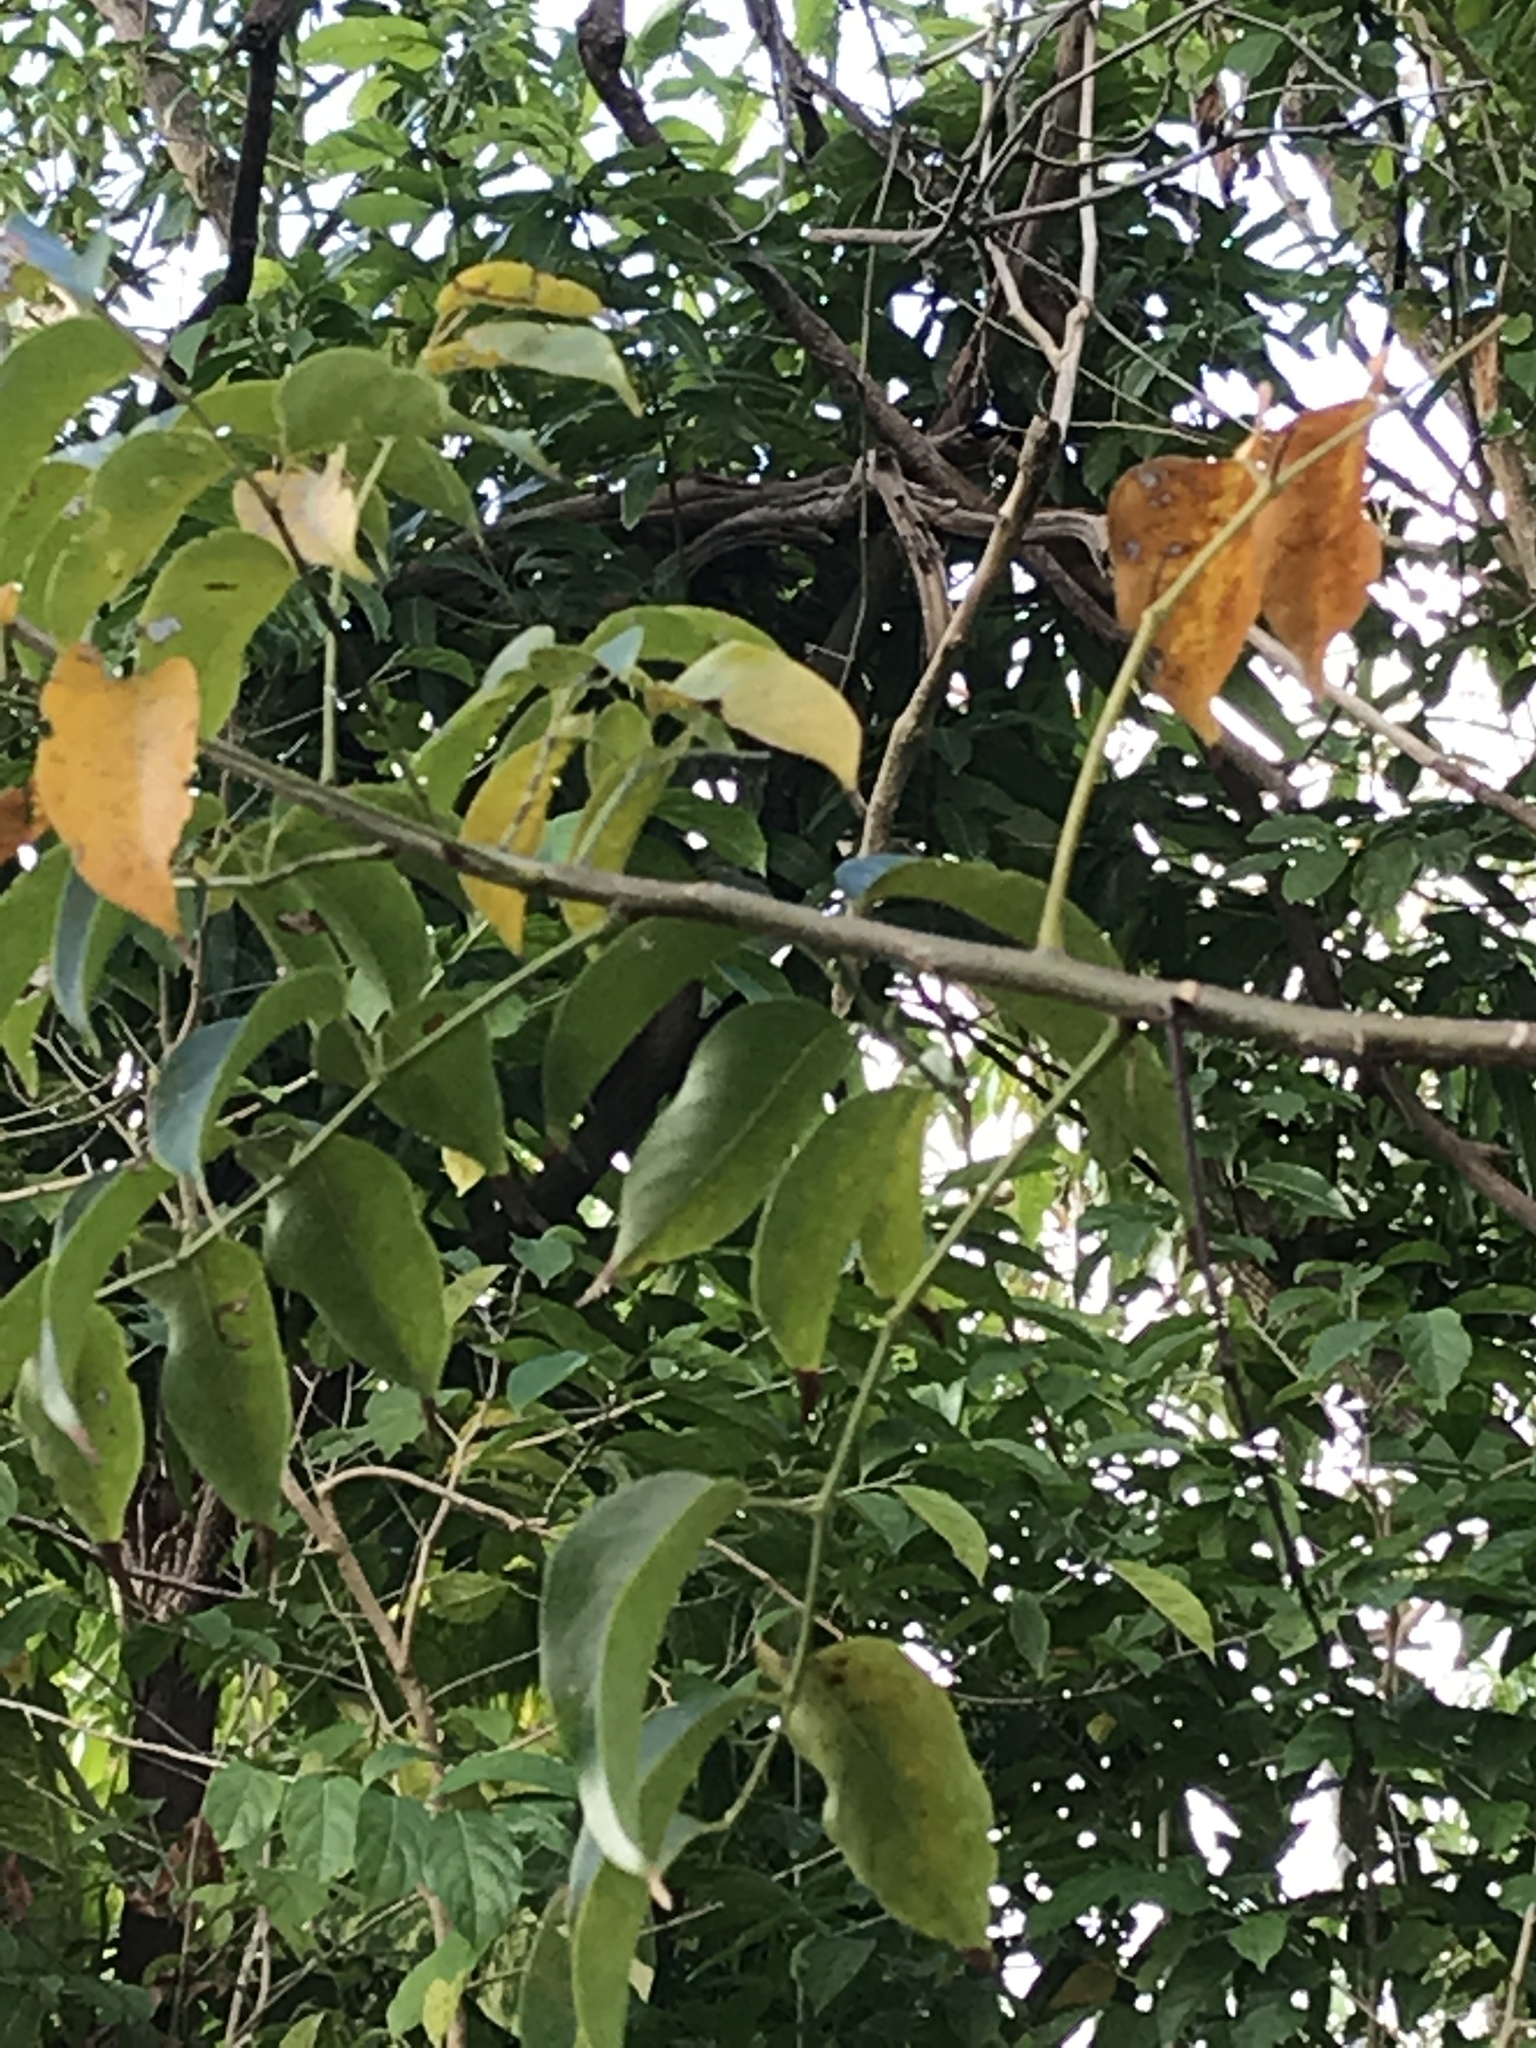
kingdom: Plantae
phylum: Tracheophyta
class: Magnoliopsida
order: Sapindales
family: Burseraceae
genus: Bursera
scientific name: Bursera simaruba
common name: Turpentine tree
